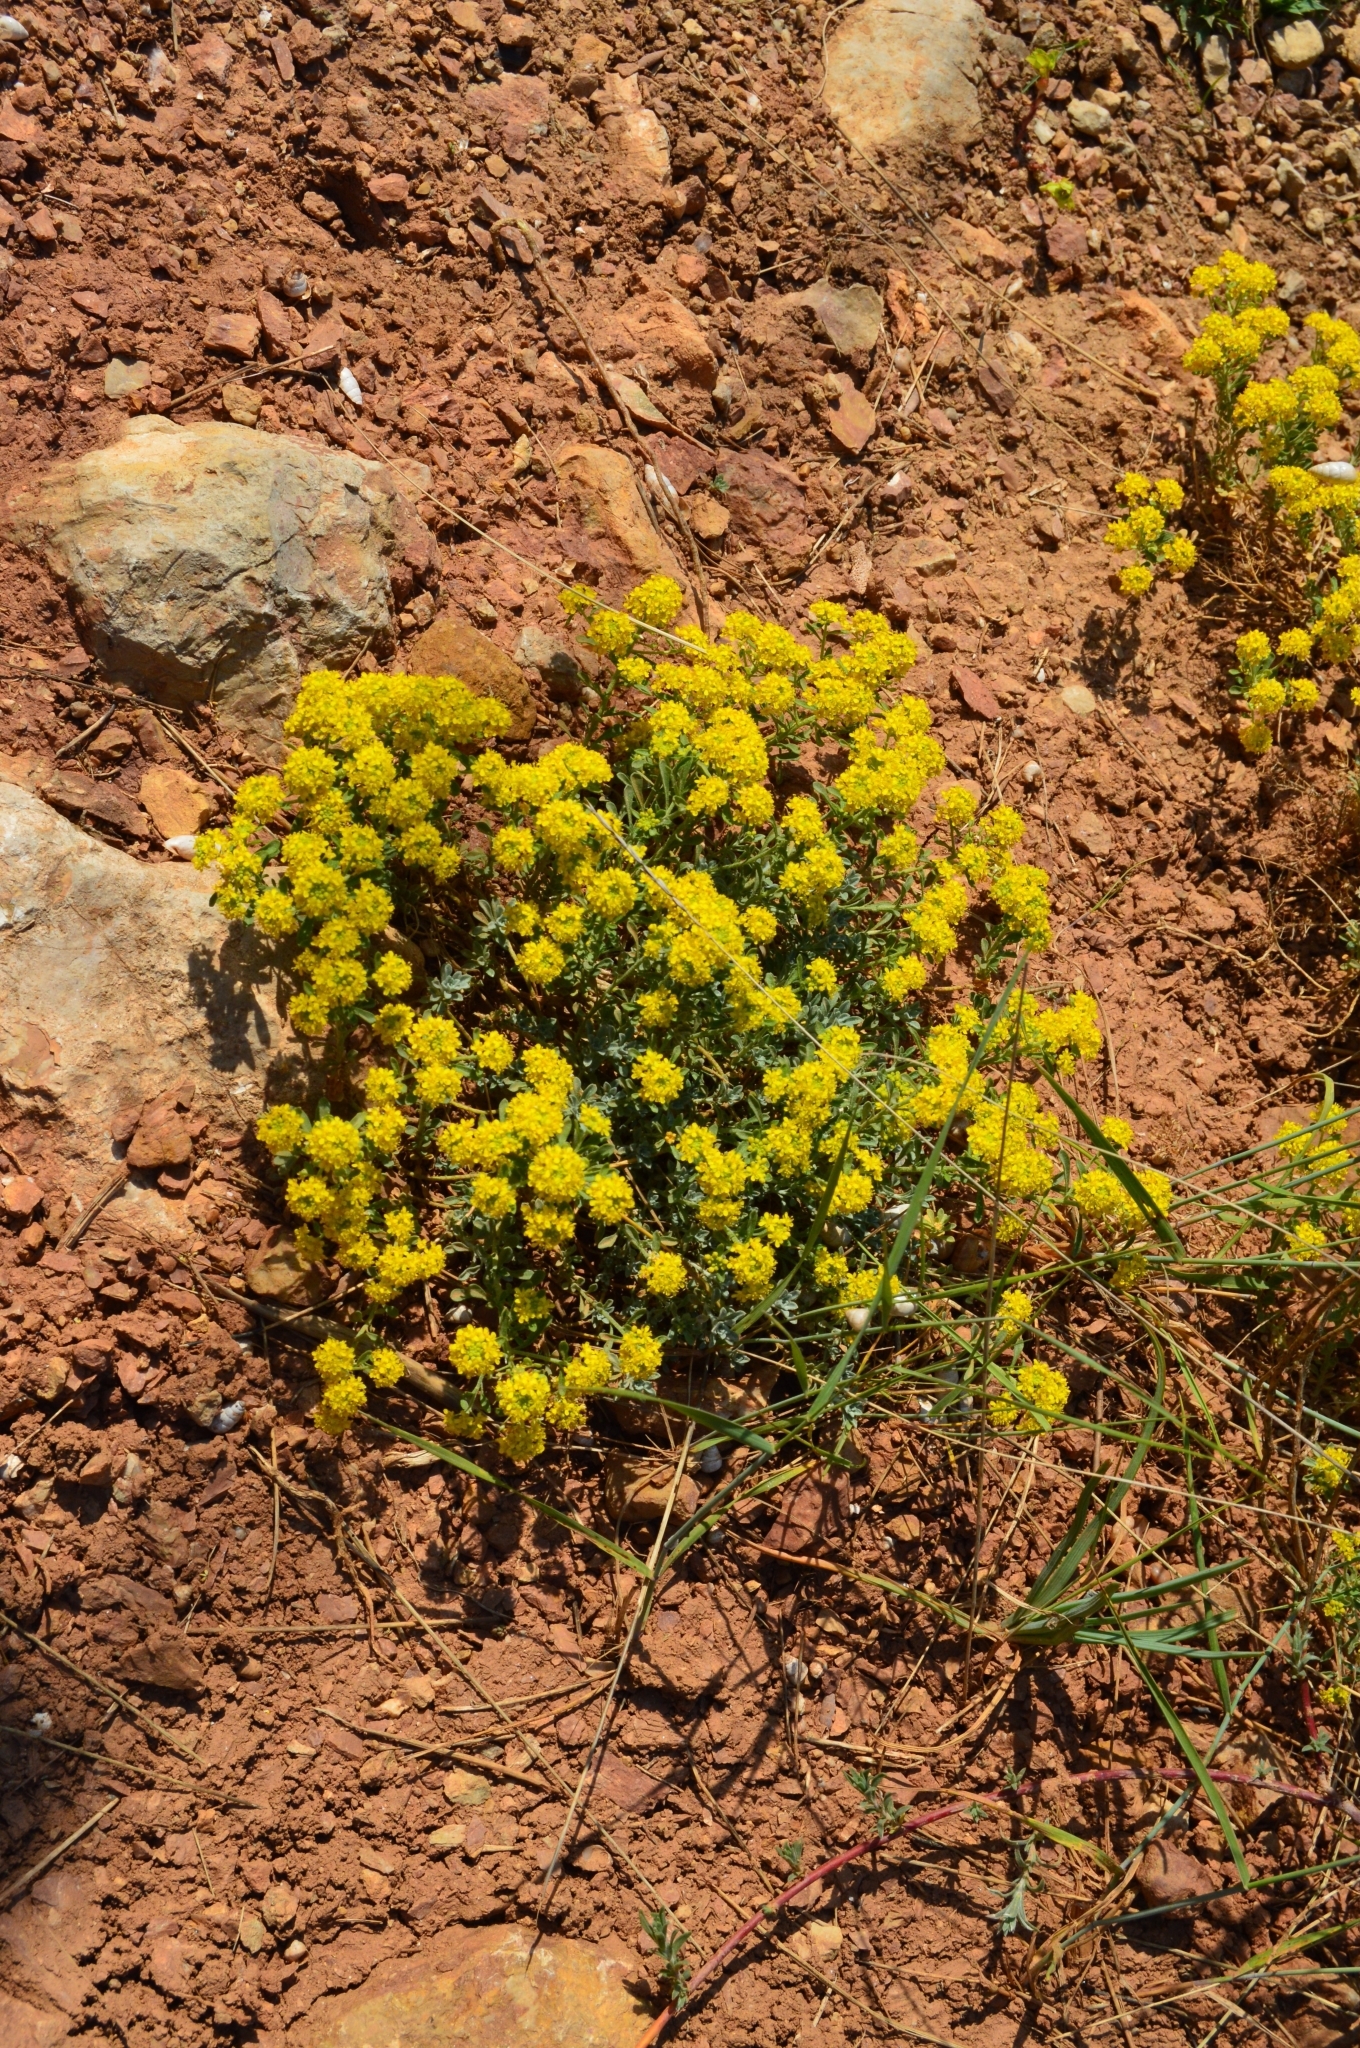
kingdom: Plantae
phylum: Tracheophyta
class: Magnoliopsida
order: Brassicales
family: Brassicaceae
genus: Odontarrhena
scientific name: Odontarrhena tortuosa
